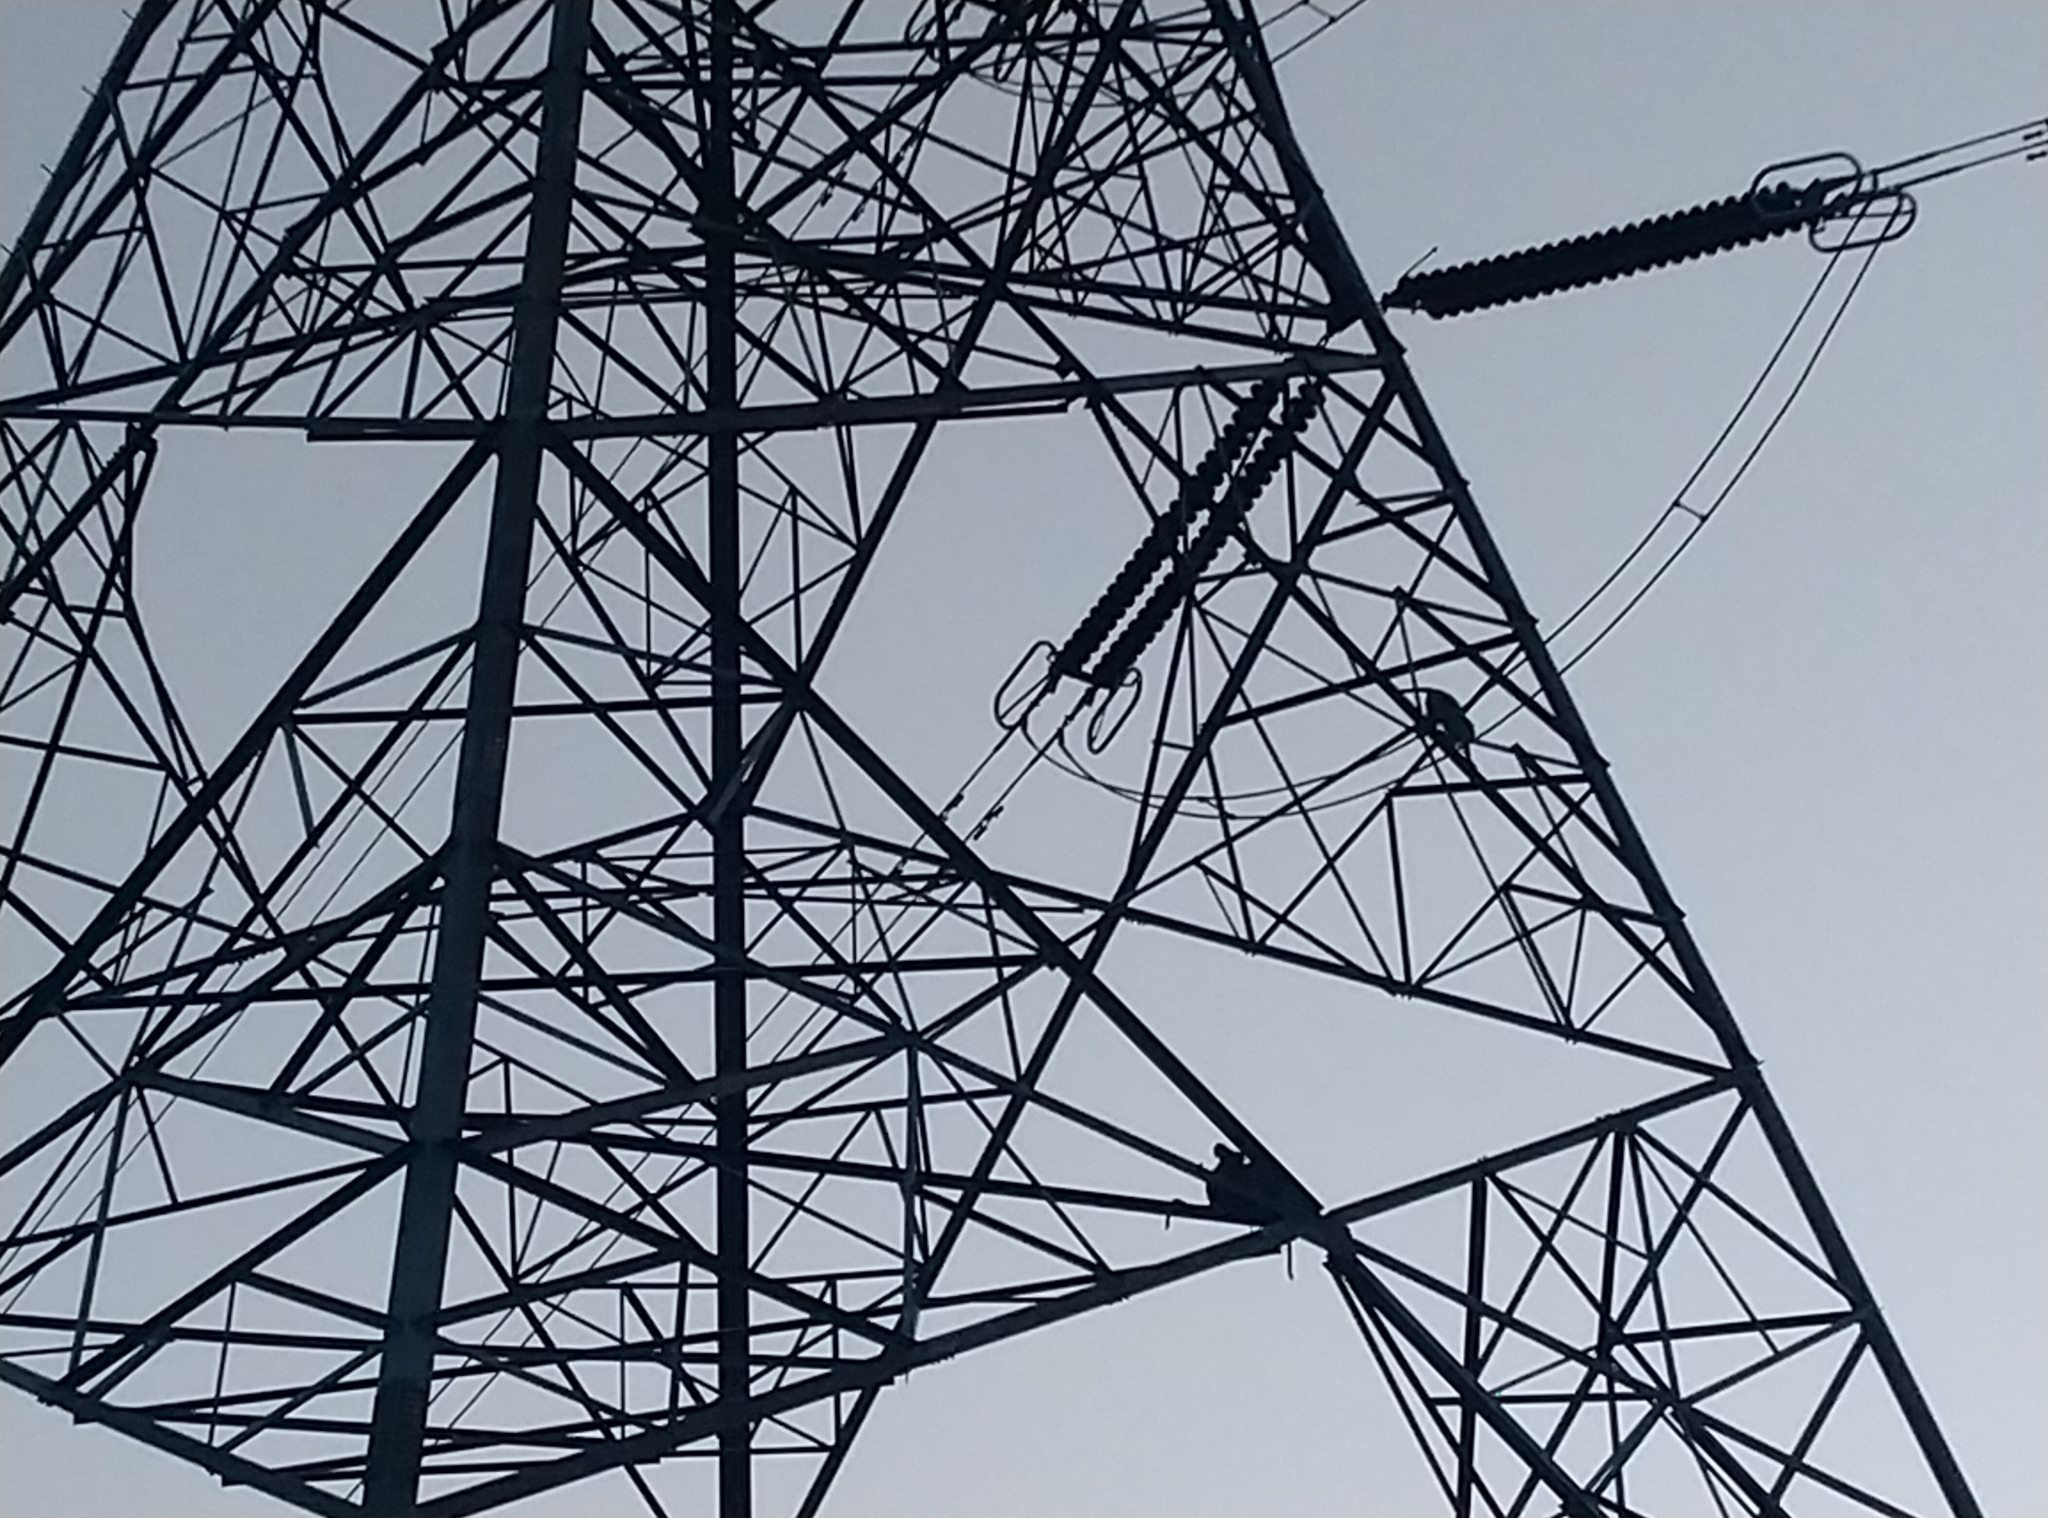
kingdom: Animalia
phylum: Chordata
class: Mammalia
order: Primates
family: Cercopithecidae
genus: Macaca
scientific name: Macaca radiata
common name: Bonnet macaque
